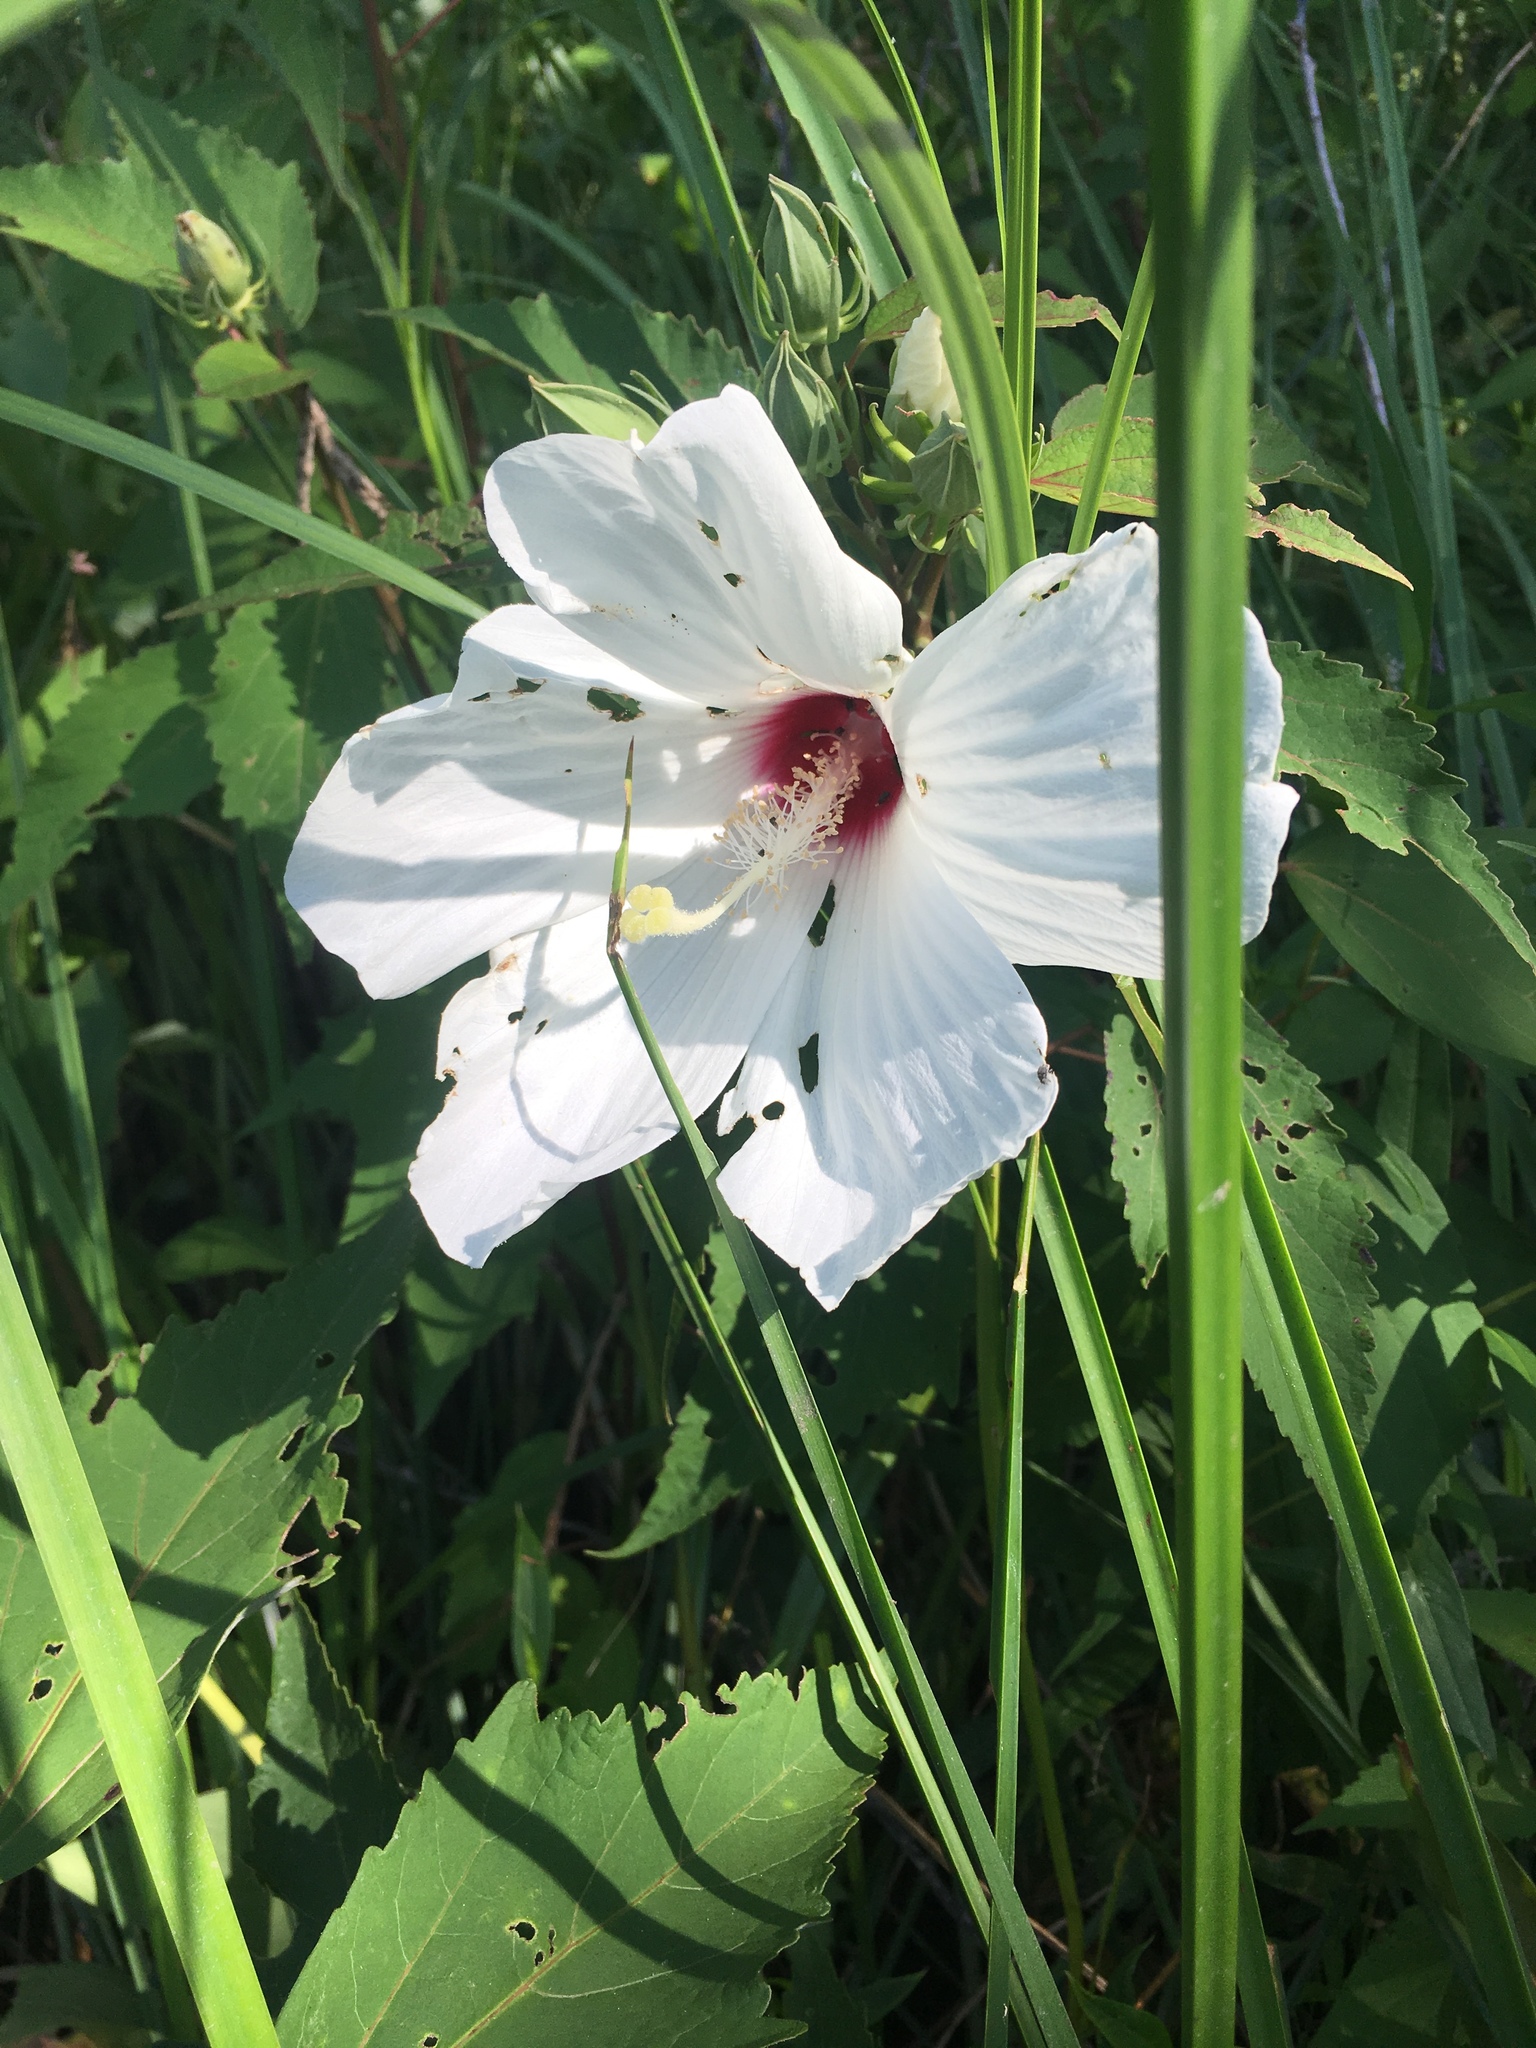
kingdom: Plantae
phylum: Tracheophyta
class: Magnoliopsida
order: Malvales
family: Malvaceae
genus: Hibiscus
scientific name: Hibiscus moscheutos
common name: Common rose-mallow
